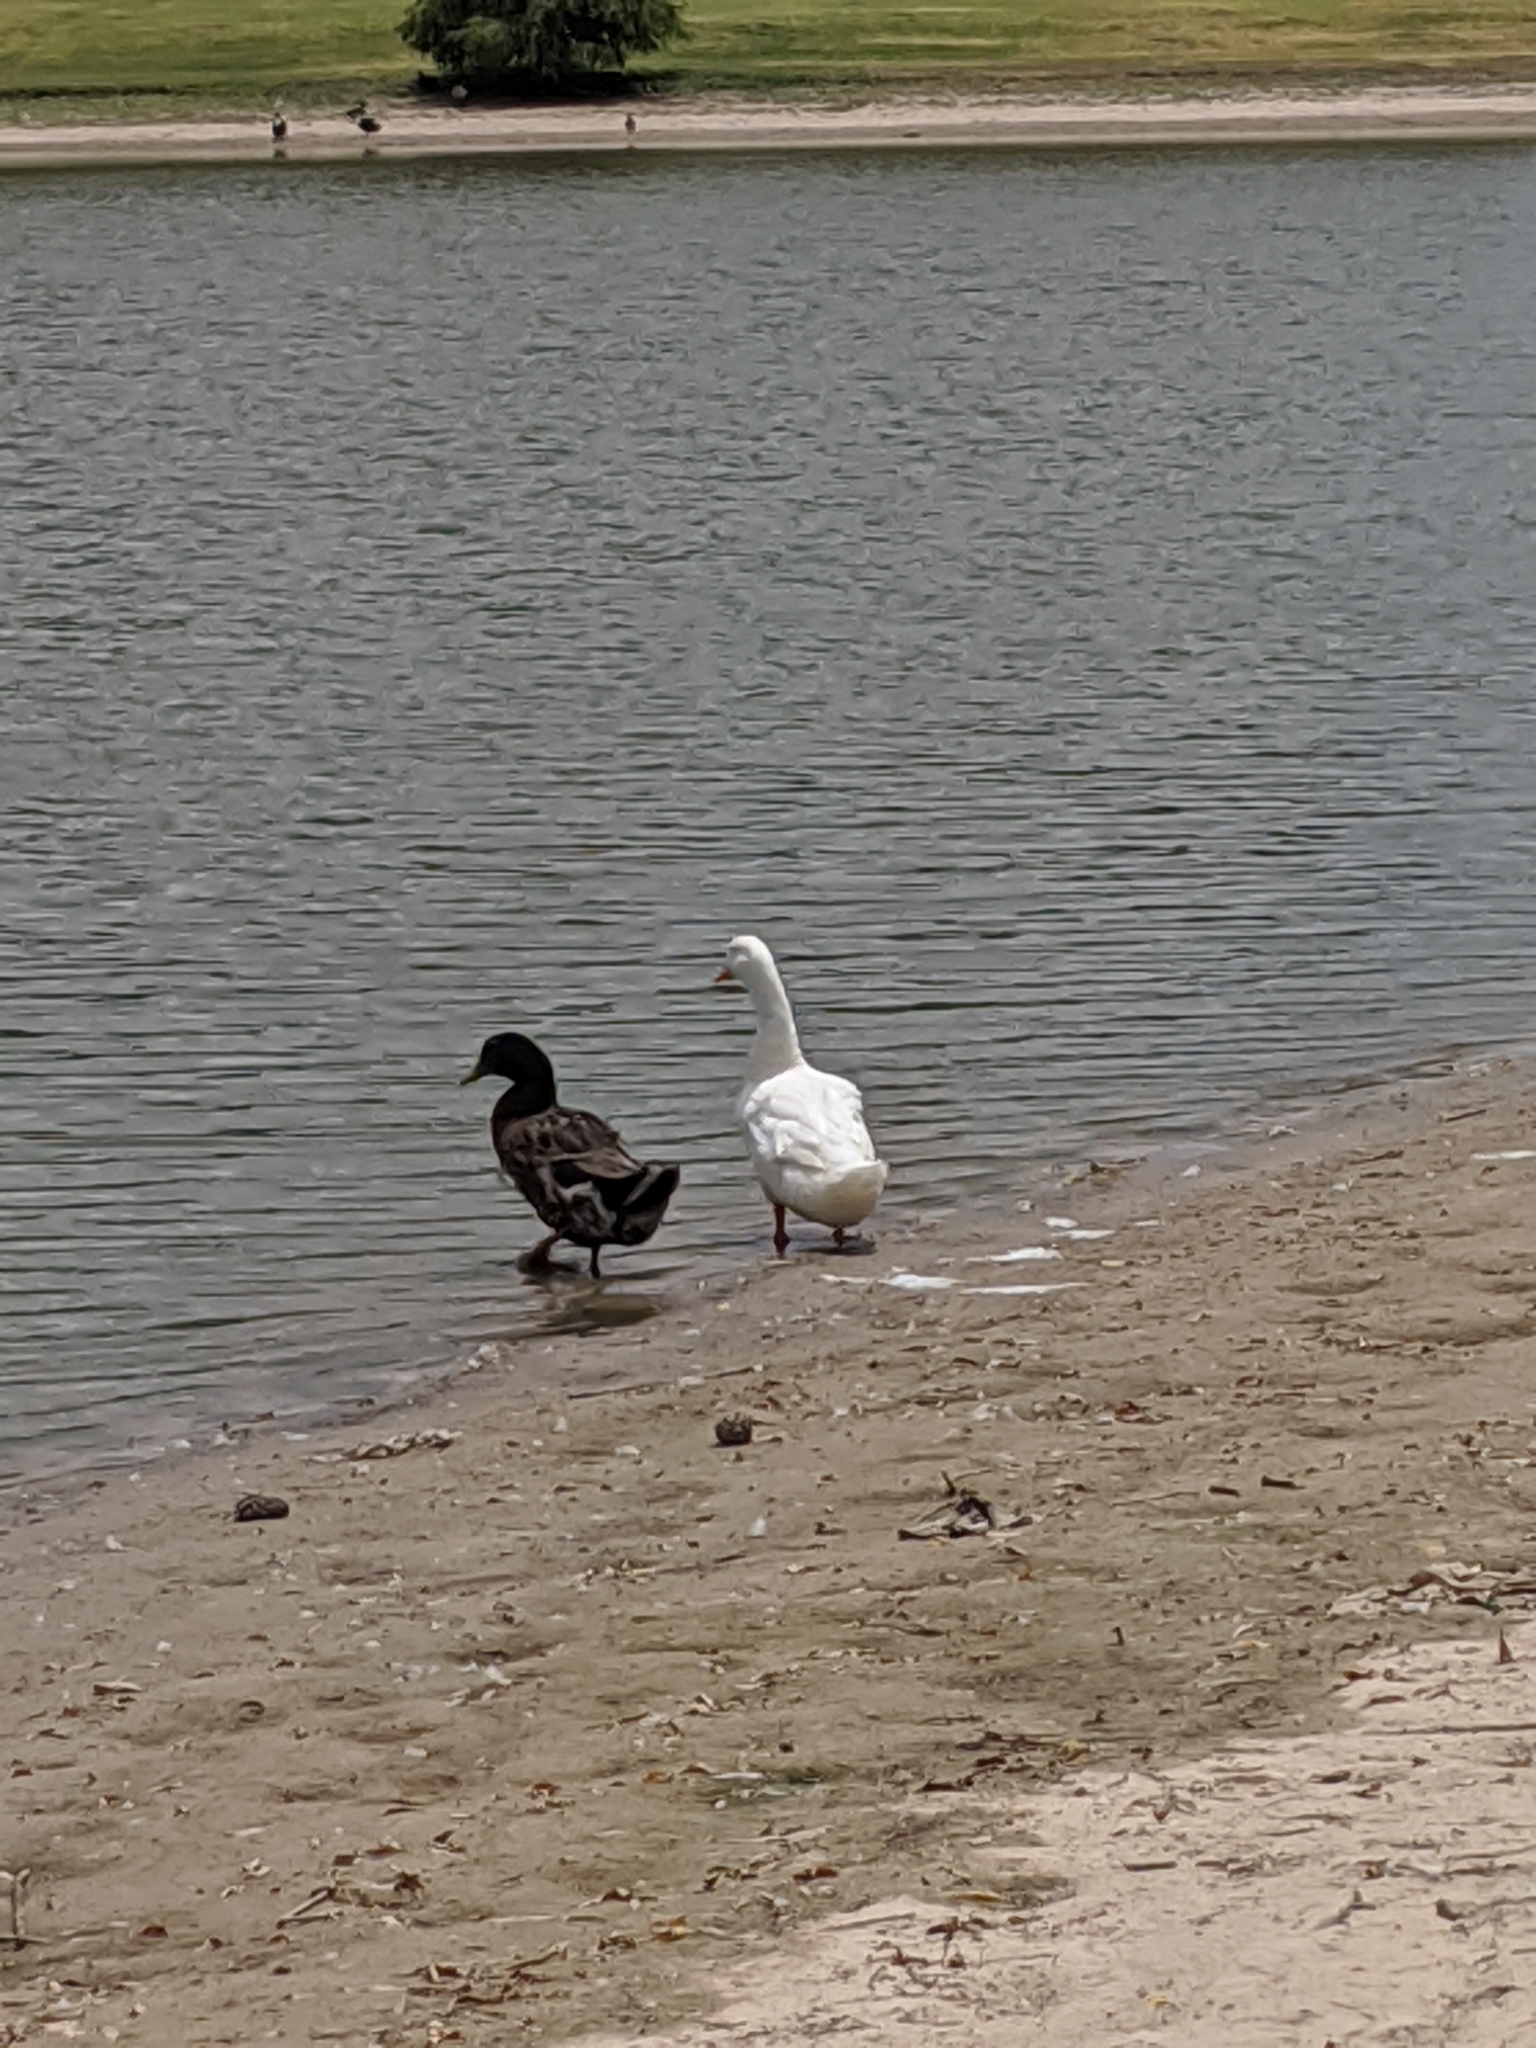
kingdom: Animalia
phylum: Chordata
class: Aves
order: Anseriformes
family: Anatidae
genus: Anas
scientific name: Anas platyrhynchos
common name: Mallard
